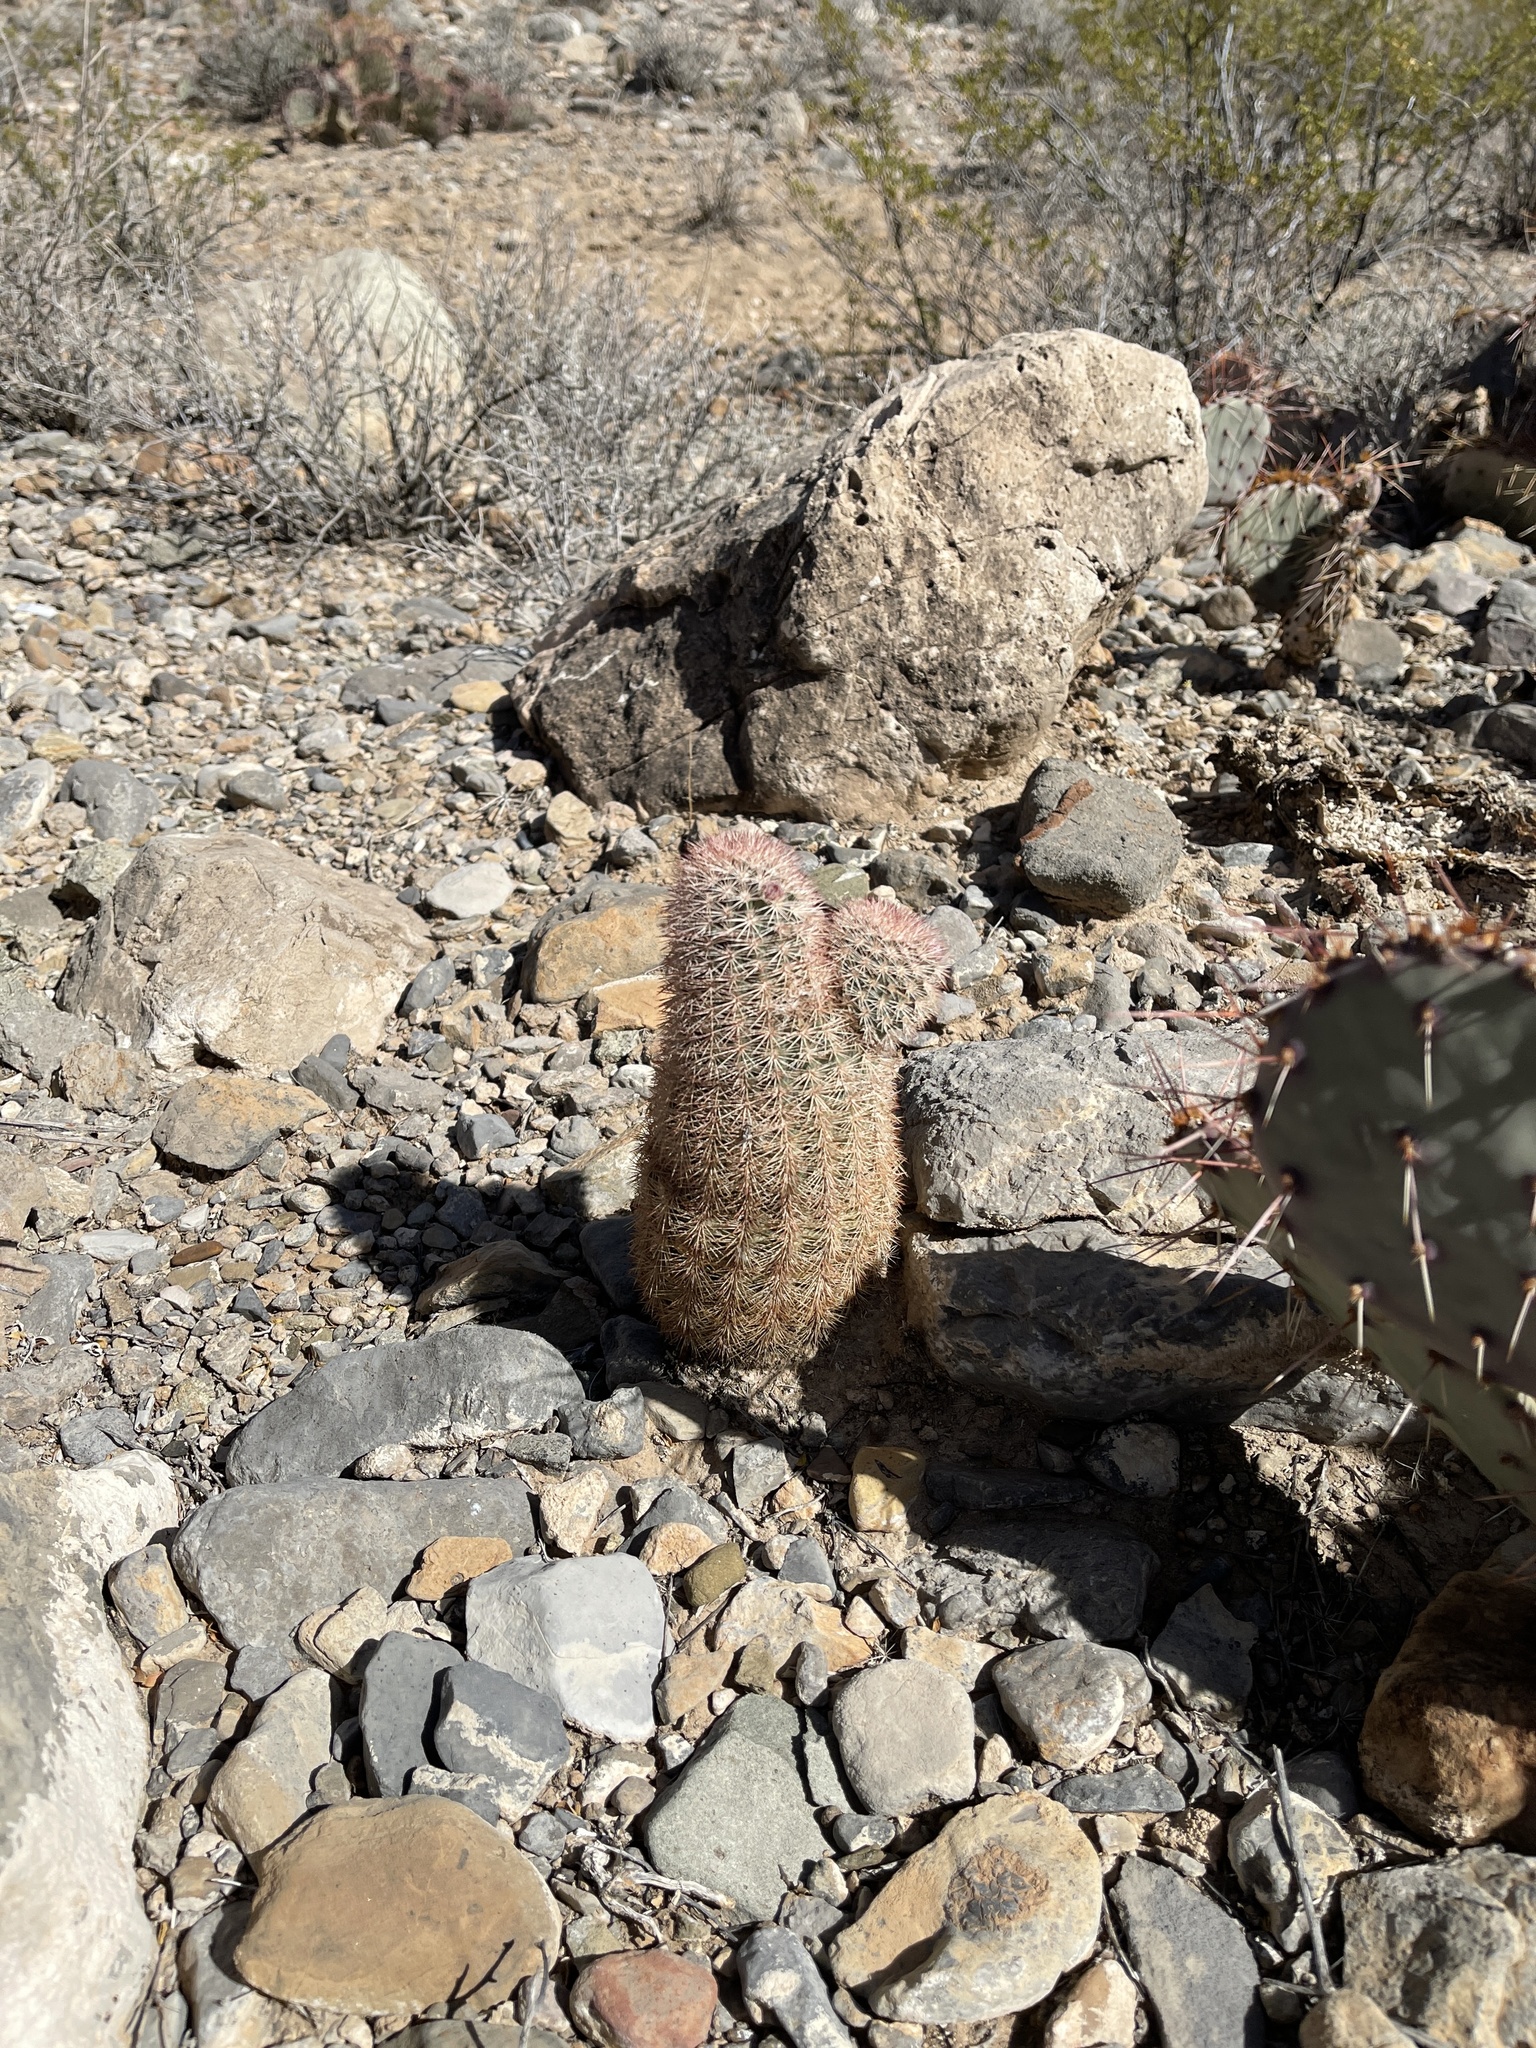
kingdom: Plantae
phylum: Tracheophyta
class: Magnoliopsida
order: Caryophyllales
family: Cactaceae
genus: Echinocereus
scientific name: Echinocereus dasyacanthus
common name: Spiny hedgehog cactus
